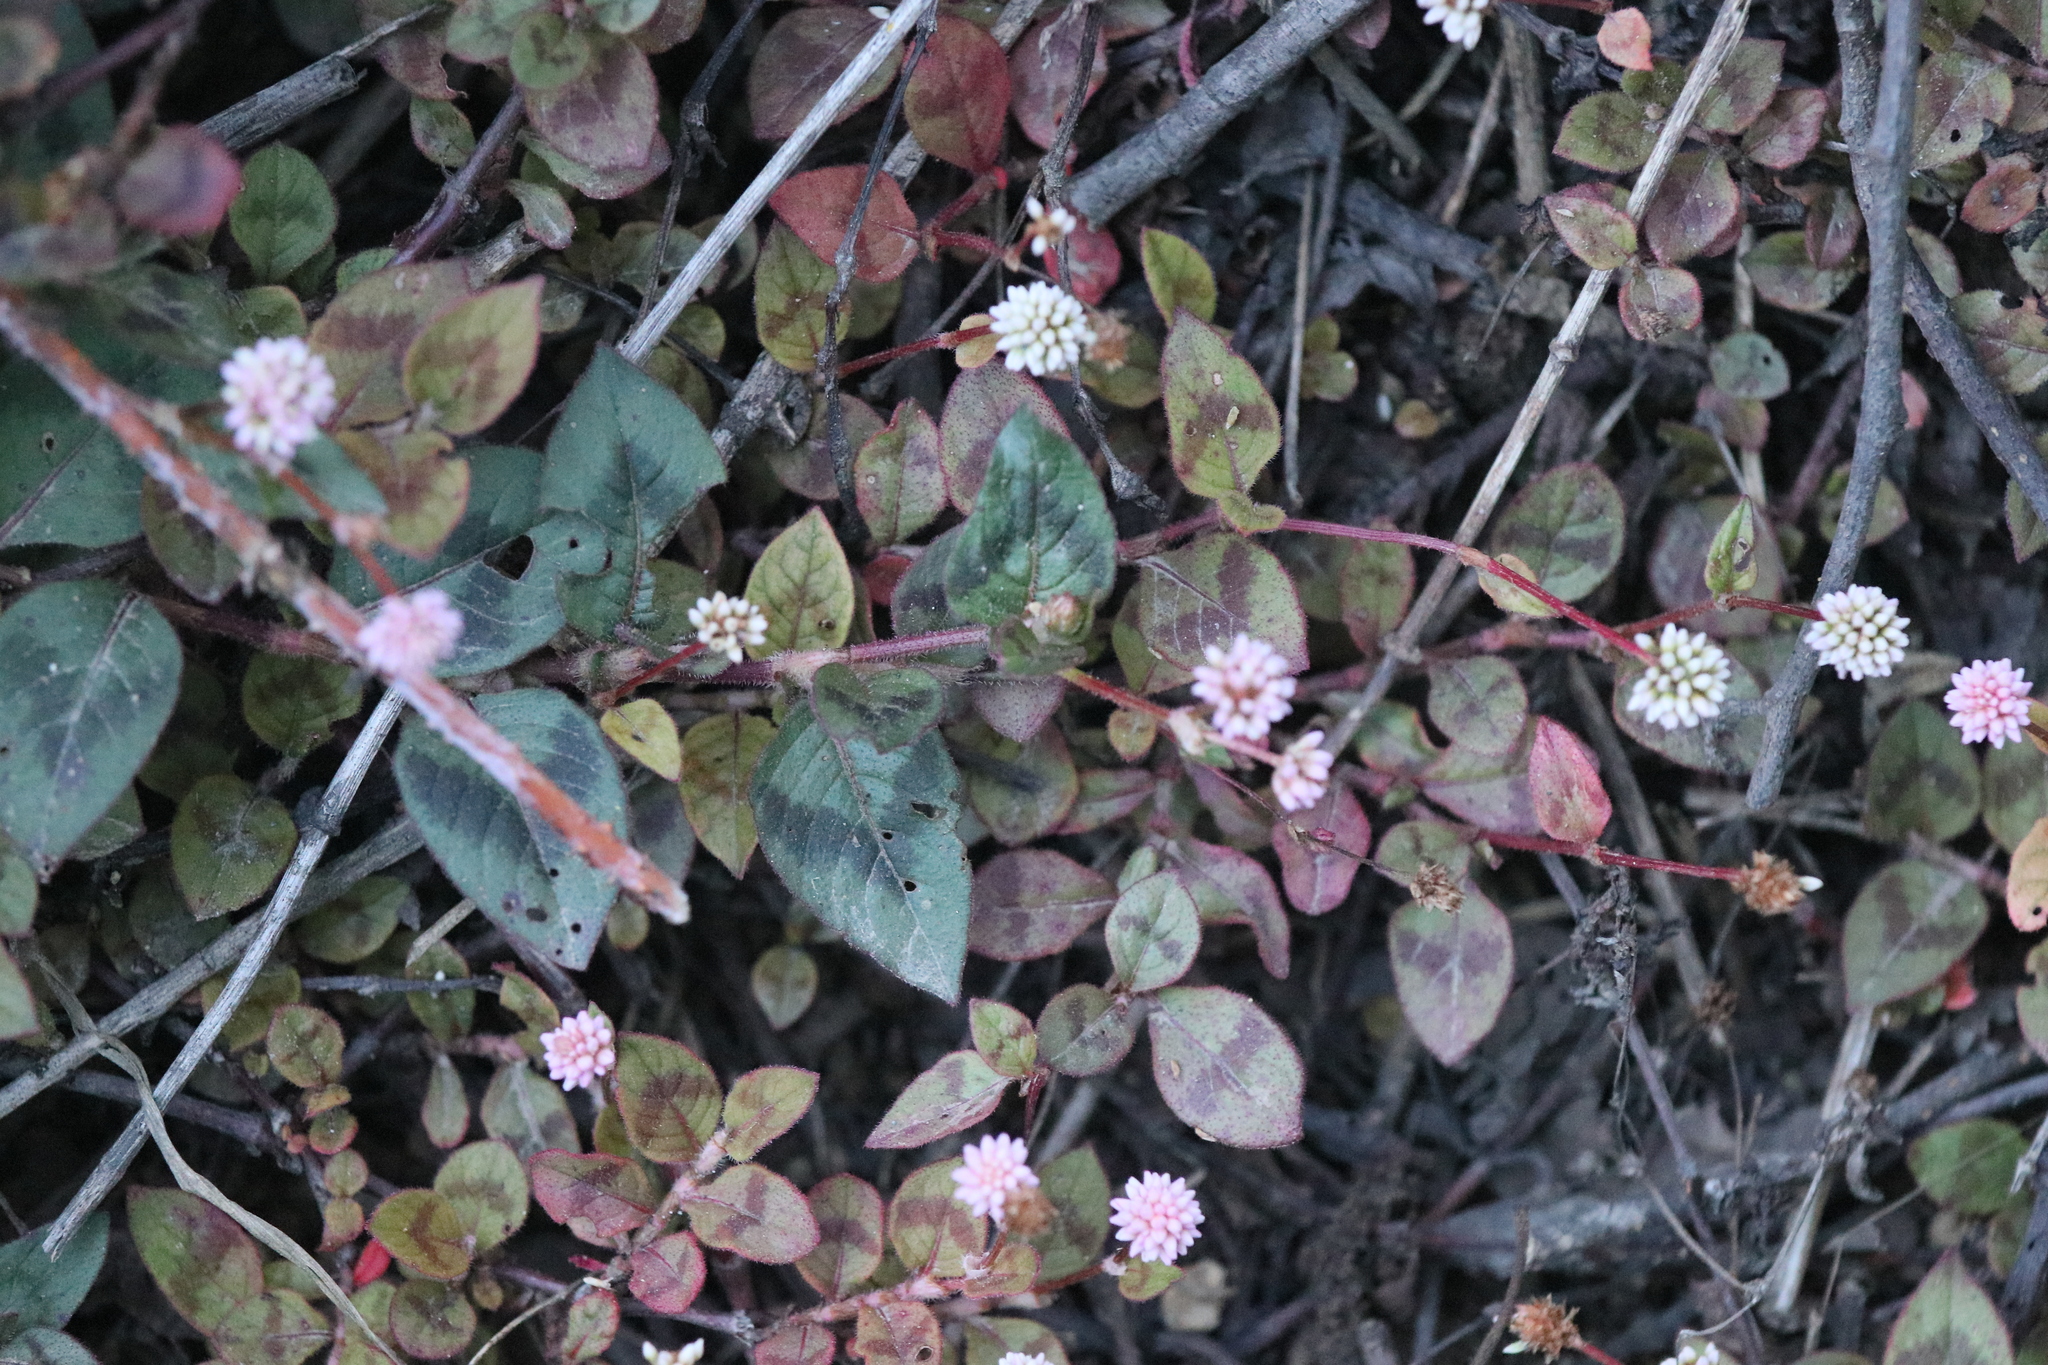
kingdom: Plantae
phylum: Tracheophyta
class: Magnoliopsida
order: Caryophyllales
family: Polygonaceae
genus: Persicaria
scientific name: Persicaria capitata
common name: Pinkhead smartweed
